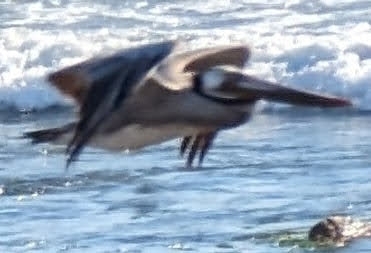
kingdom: Animalia
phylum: Chordata
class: Aves
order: Pelecaniformes
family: Pelecanidae
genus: Pelecanus
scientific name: Pelecanus occidentalis
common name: Brown pelican
